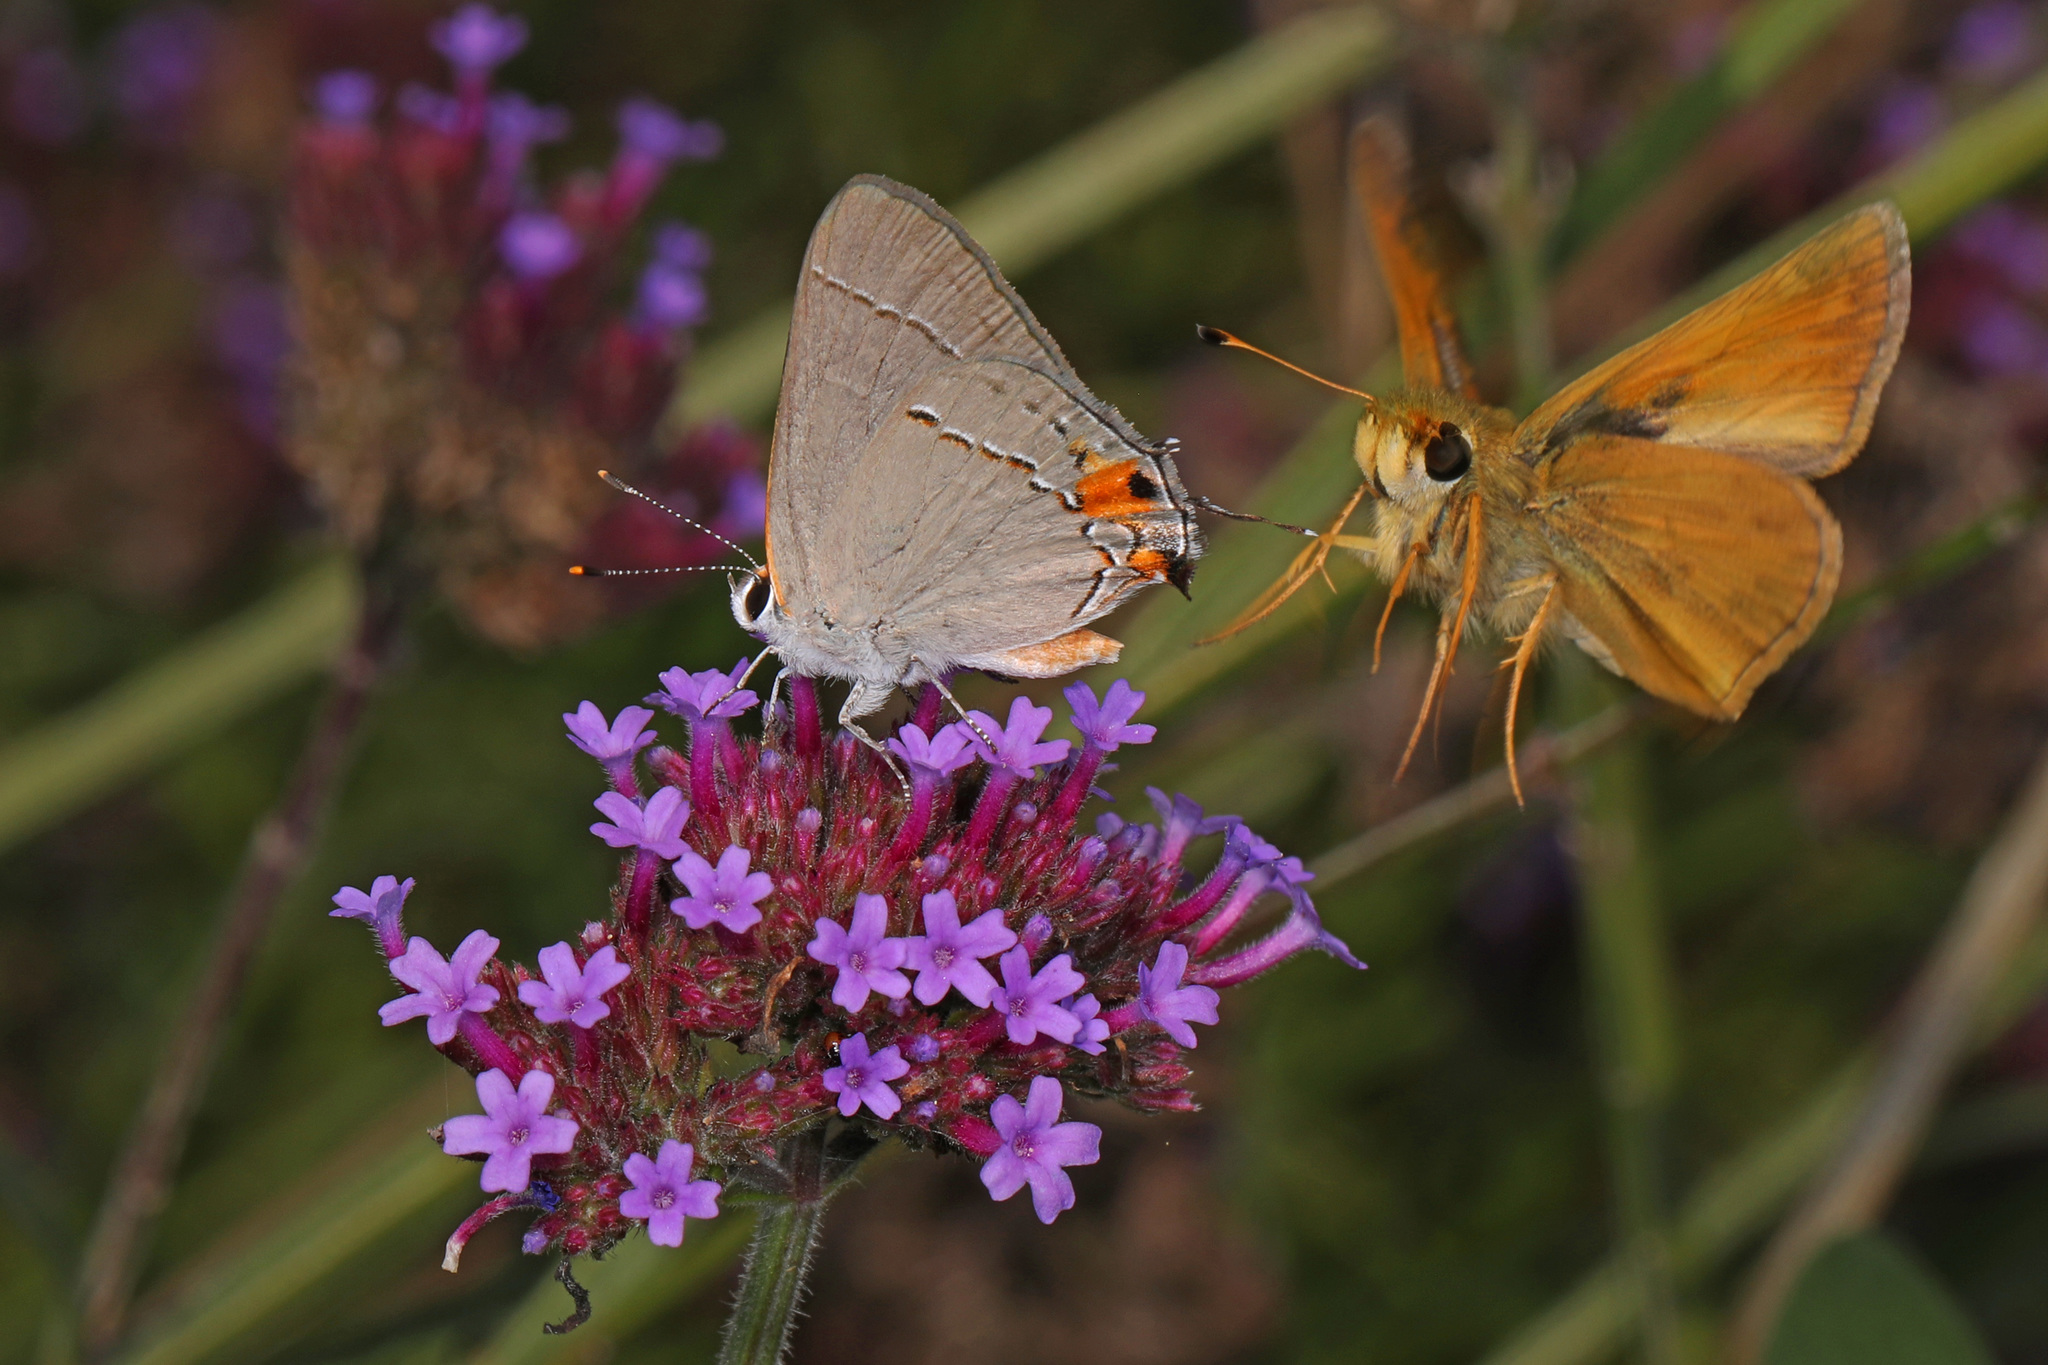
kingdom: Animalia
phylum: Arthropoda
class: Insecta
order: Lepidoptera
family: Lycaenidae
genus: Strymon
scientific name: Strymon melinus
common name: Gray hairstreak
